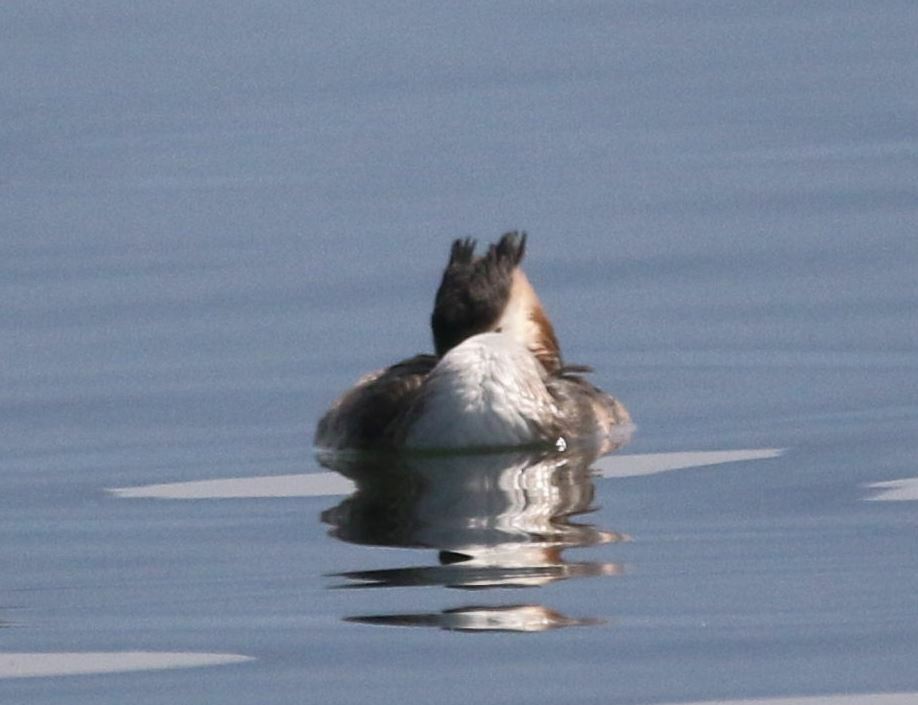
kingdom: Animalia
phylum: Chordata
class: Aves
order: Podicipediformes
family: Podicipedidae
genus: Podiceps
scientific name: Podiceps cristatus
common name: Great crested grebe
